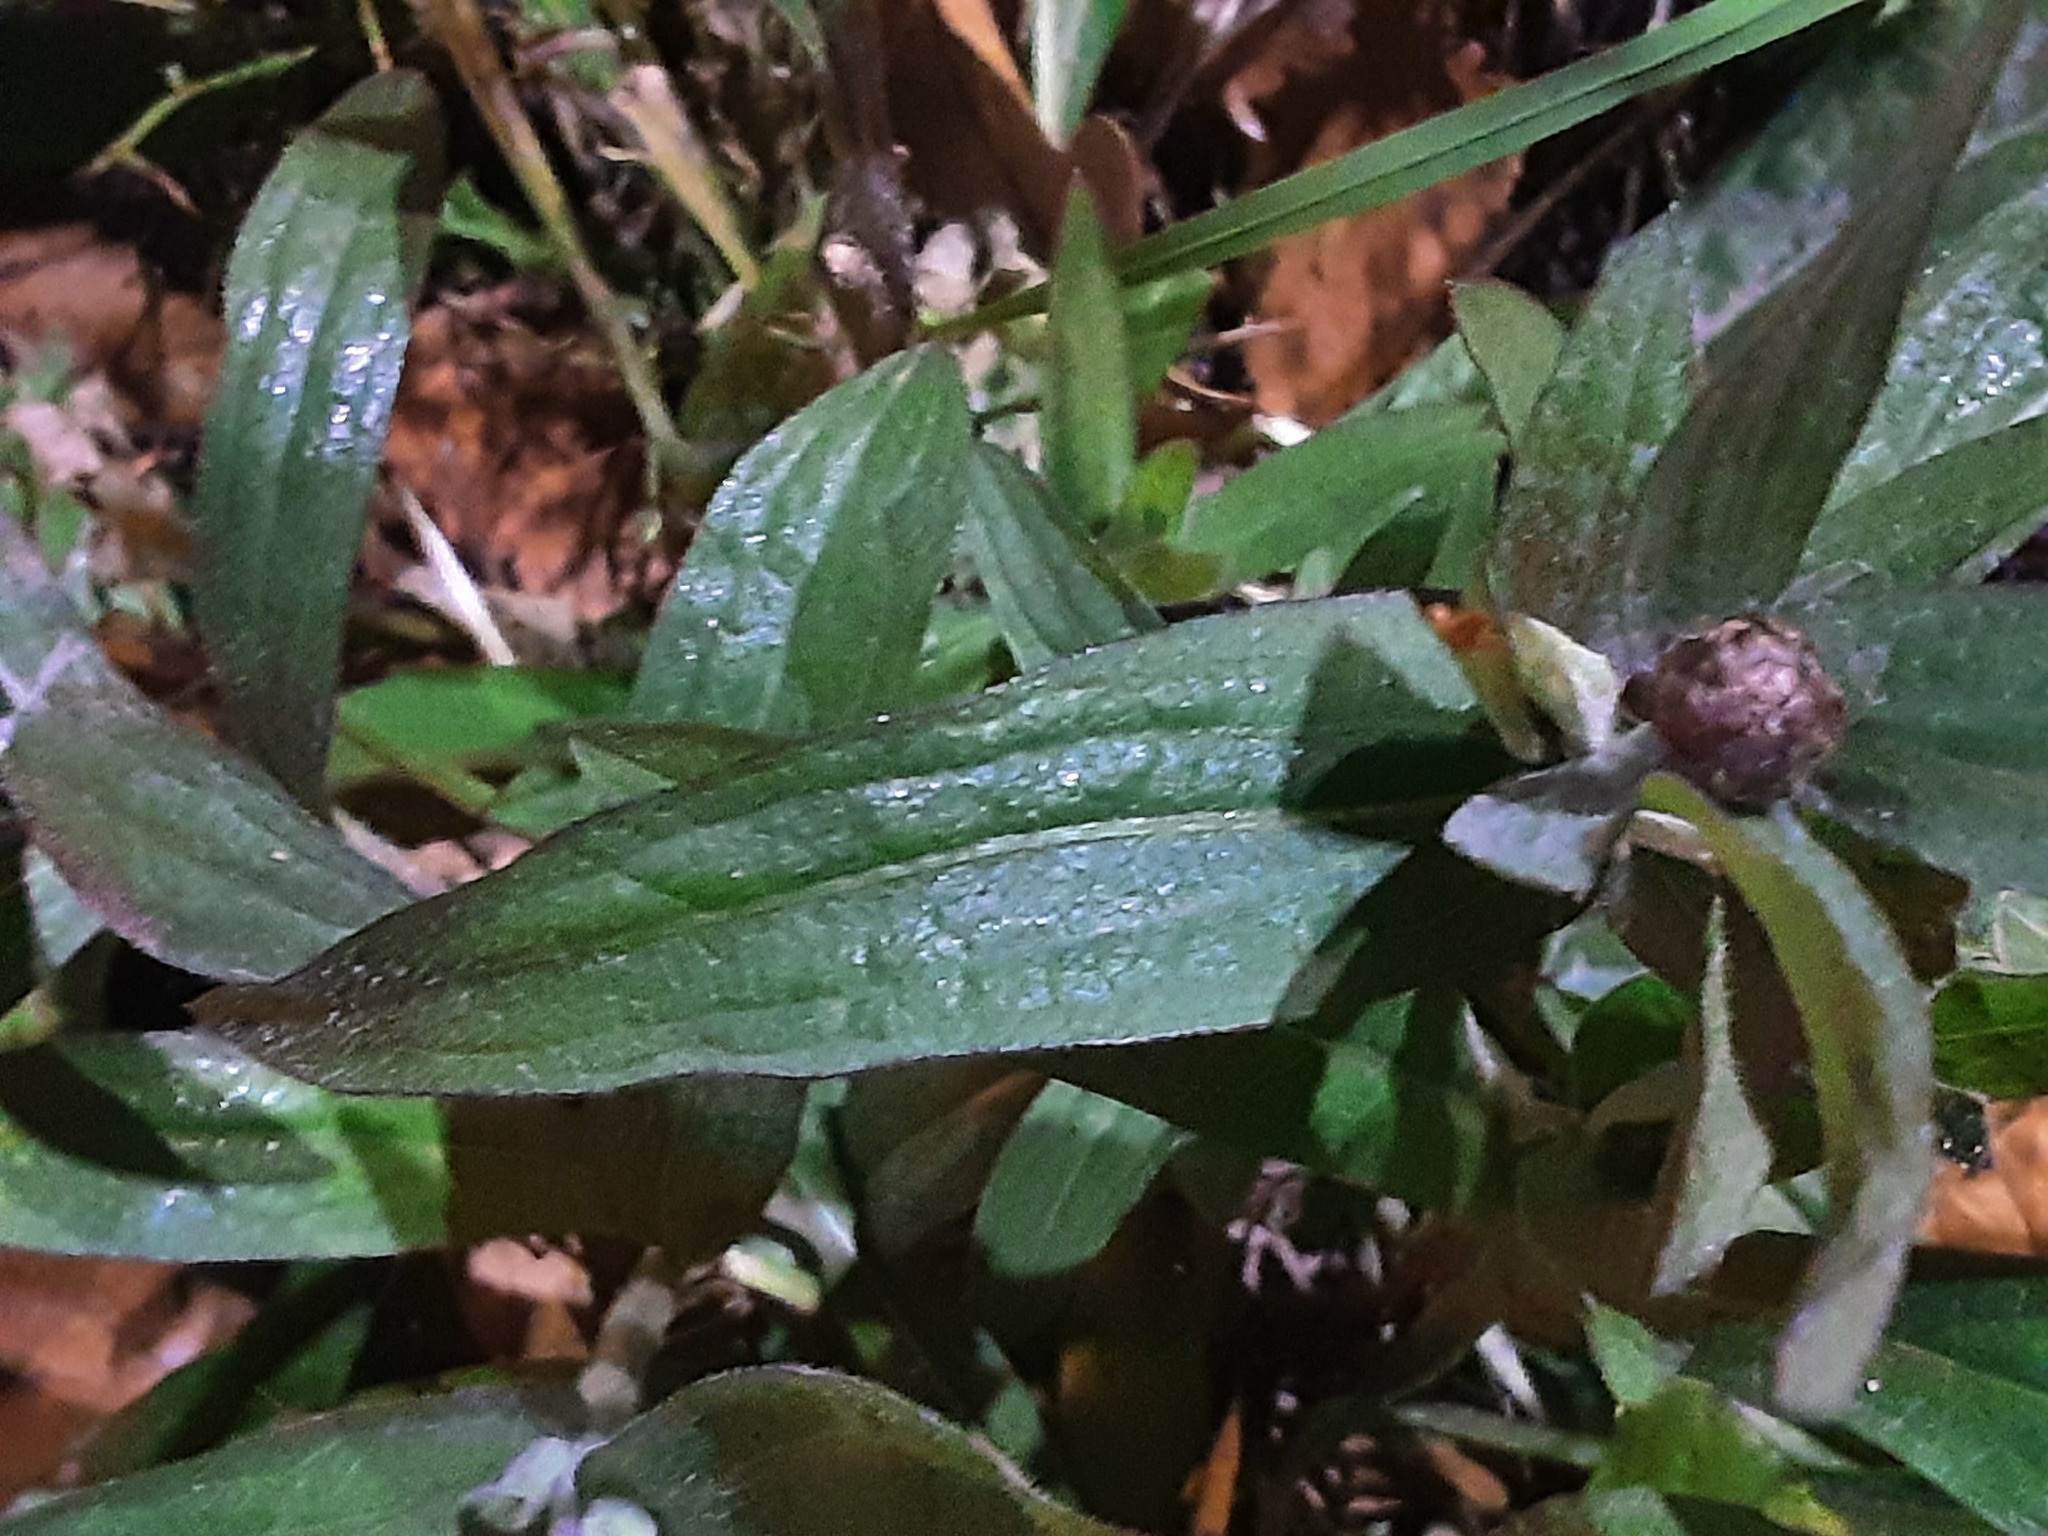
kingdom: Plantae
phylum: Tracheophyta
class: Magnoliopsida
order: Asterales
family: Asteraceae
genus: Centaurea
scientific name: Centaurea jacea
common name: Brown knapweed
